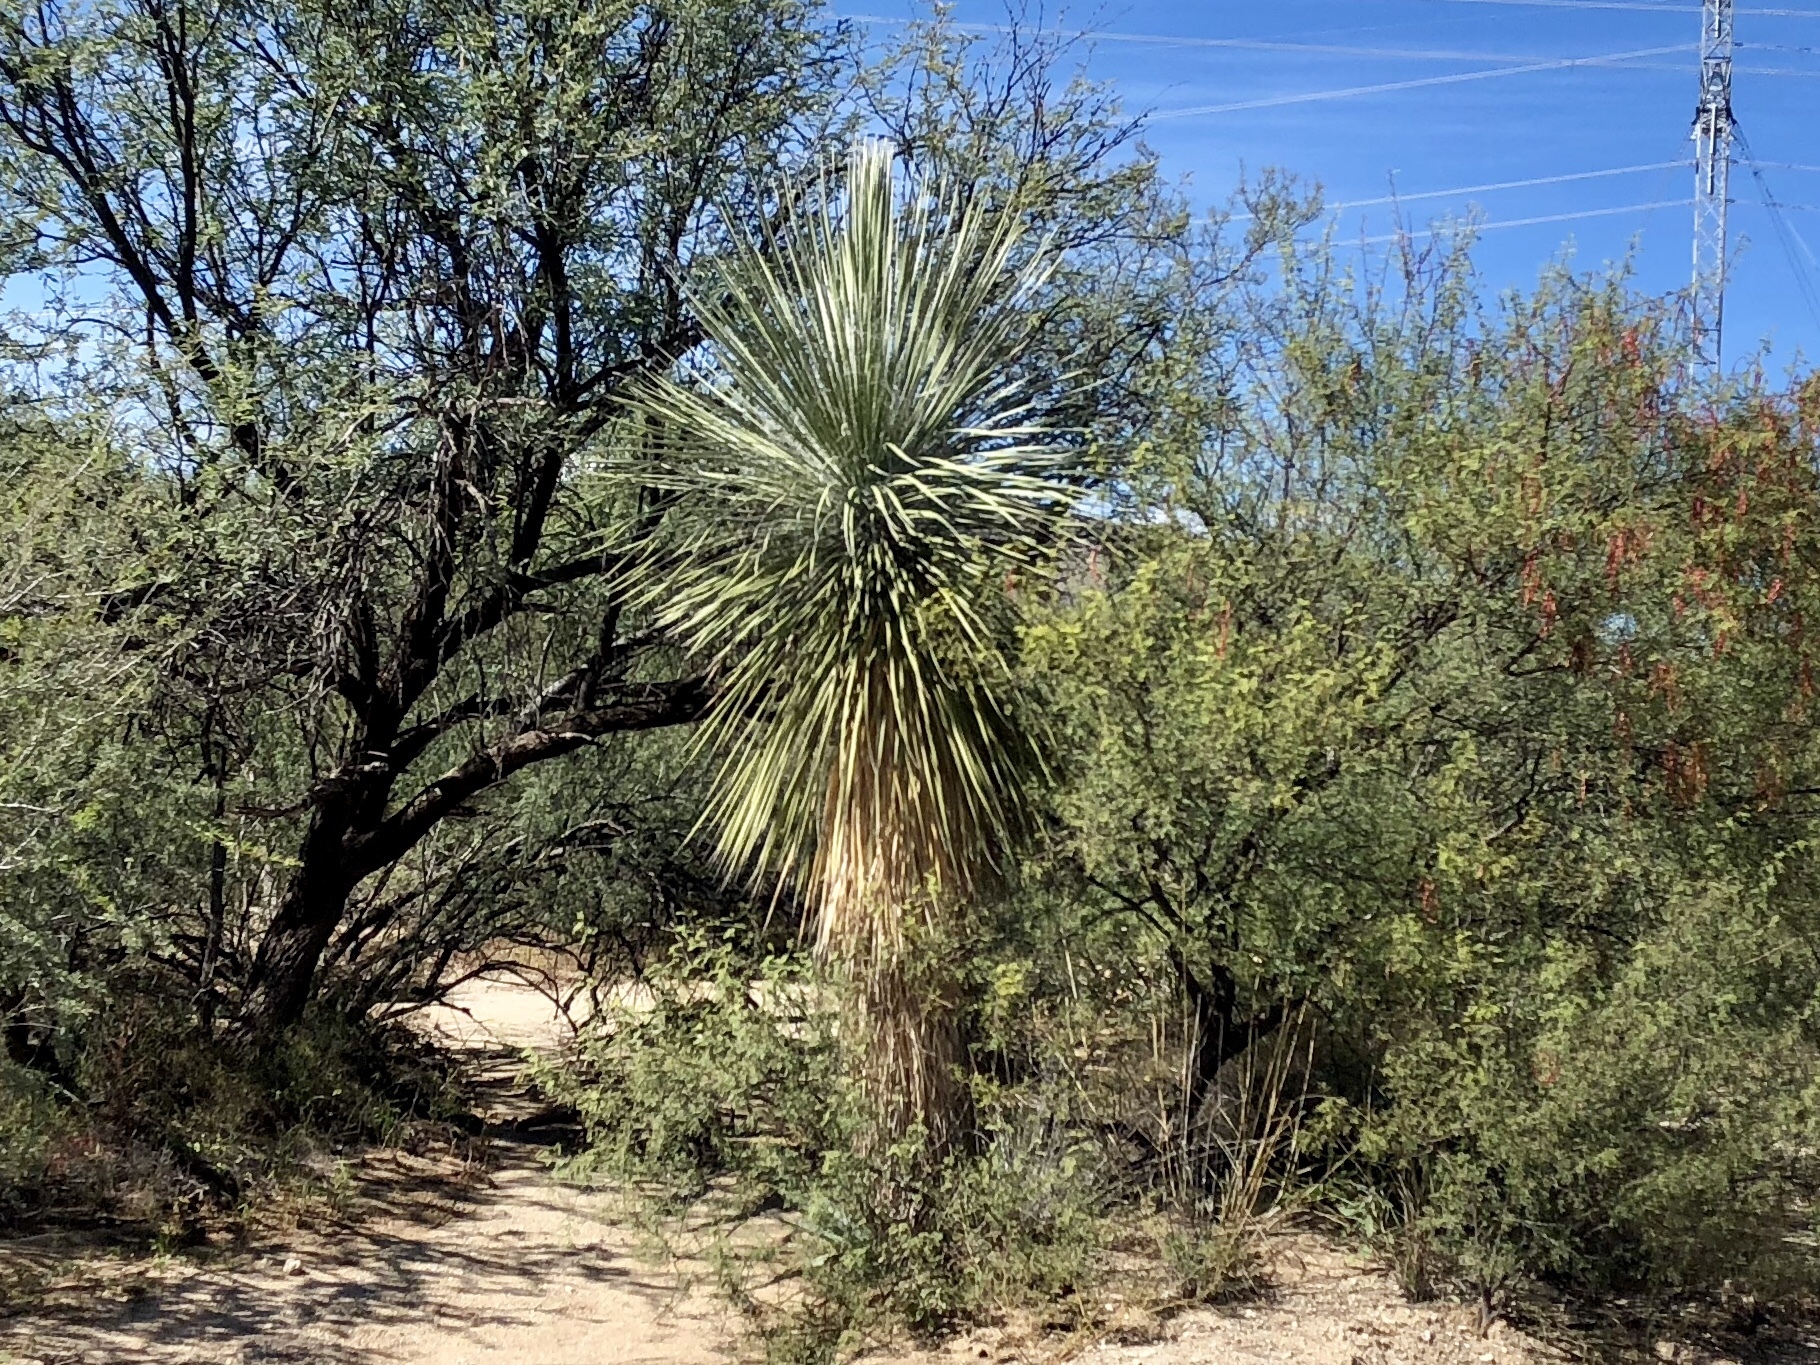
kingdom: Plantae
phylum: Tracheophyta
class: Liliopsida
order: Asparagales
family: Asparagaceae
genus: Yucca
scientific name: Yucca elata
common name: Palmella
